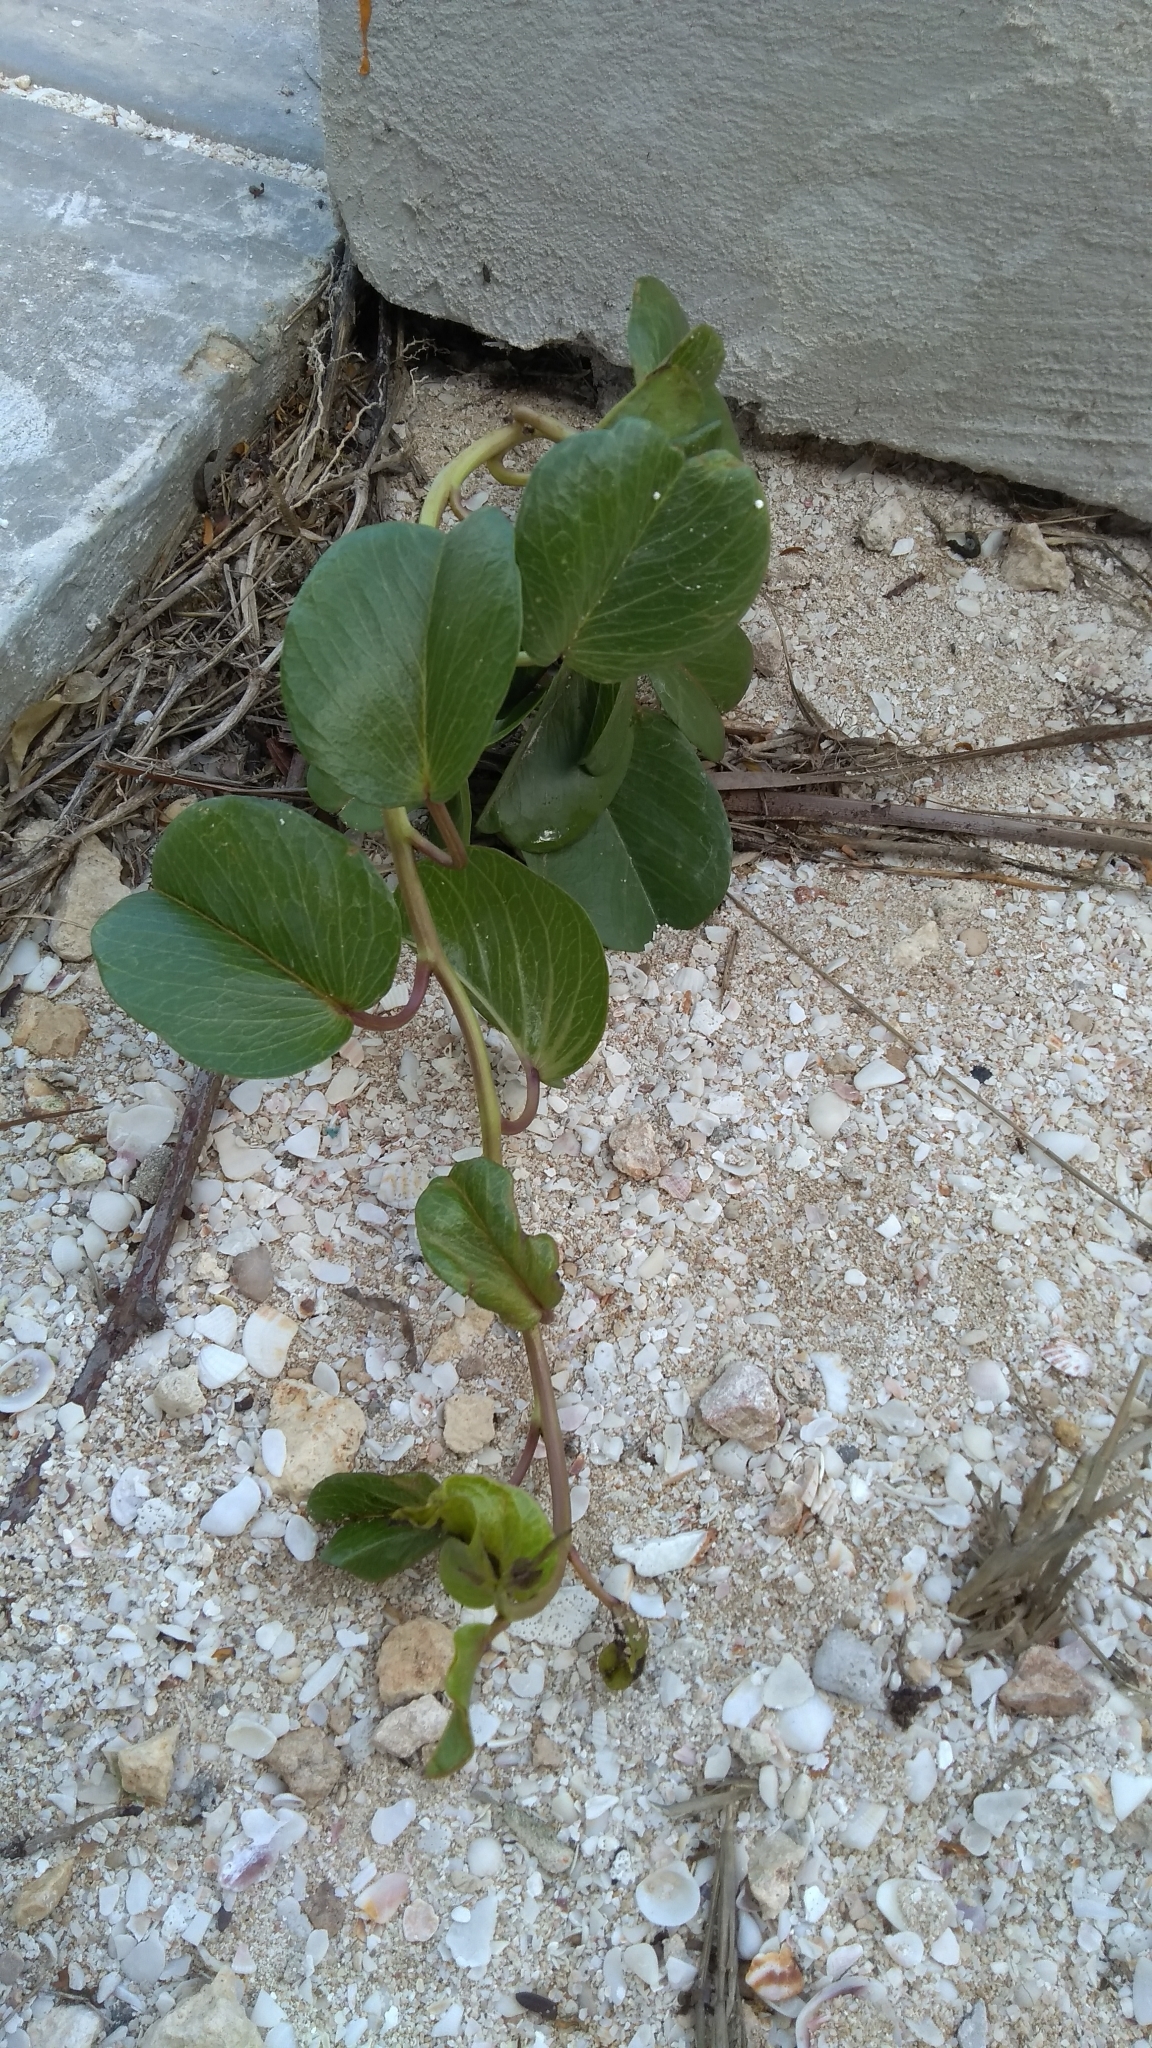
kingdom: Plantae
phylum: Tracheophyta
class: Magnoliopsida
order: Solanales
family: Convolvulaceae
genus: Ipomoea
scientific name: Ipomoea pes-caprae
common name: Beach morning glory
